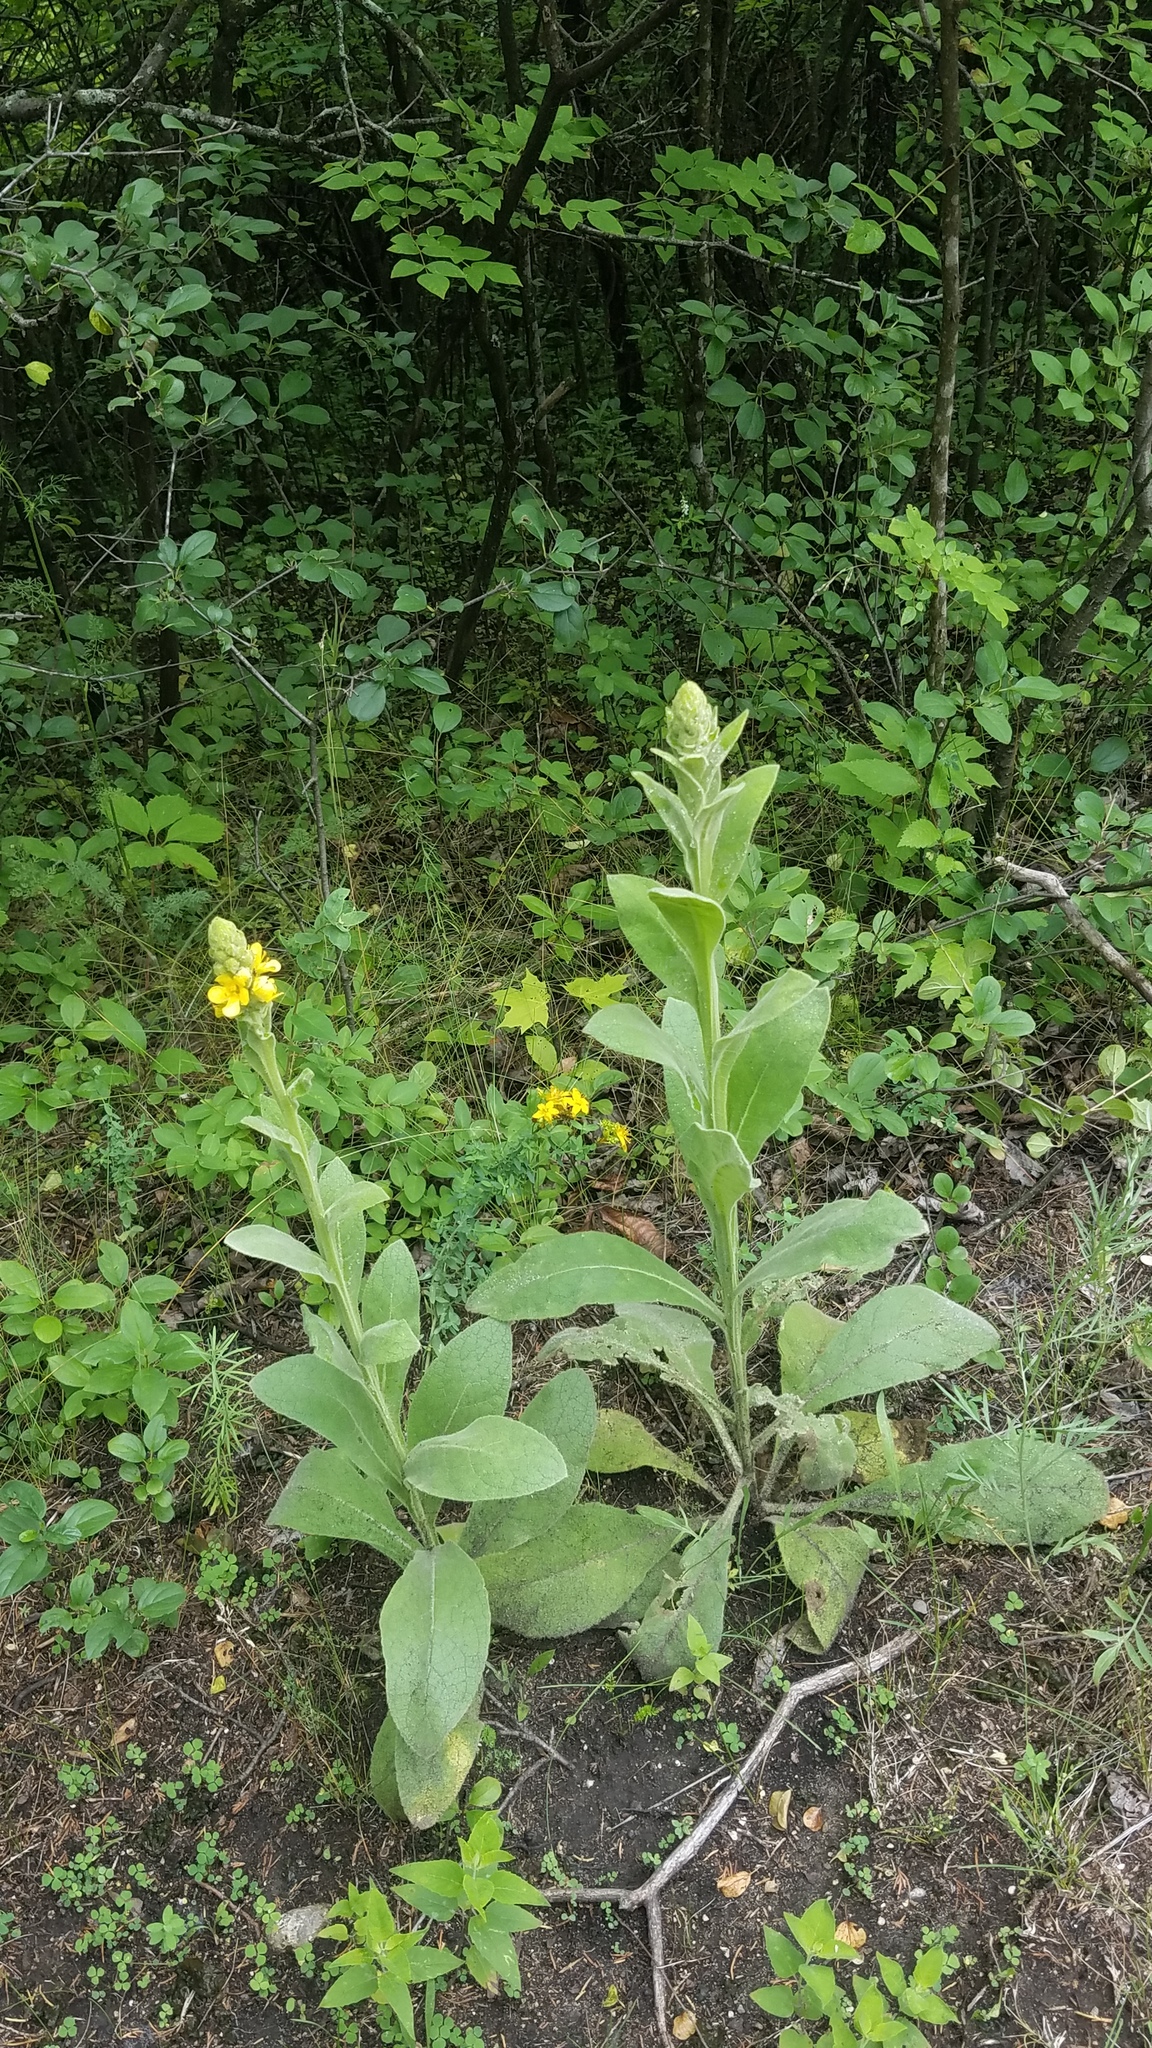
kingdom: Plantae
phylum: Tracheophyta
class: Magnoliopsida
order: Lamiales
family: Scrophulariaceae
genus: Verbascum
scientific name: Verbascum thapsus
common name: Common mullein
